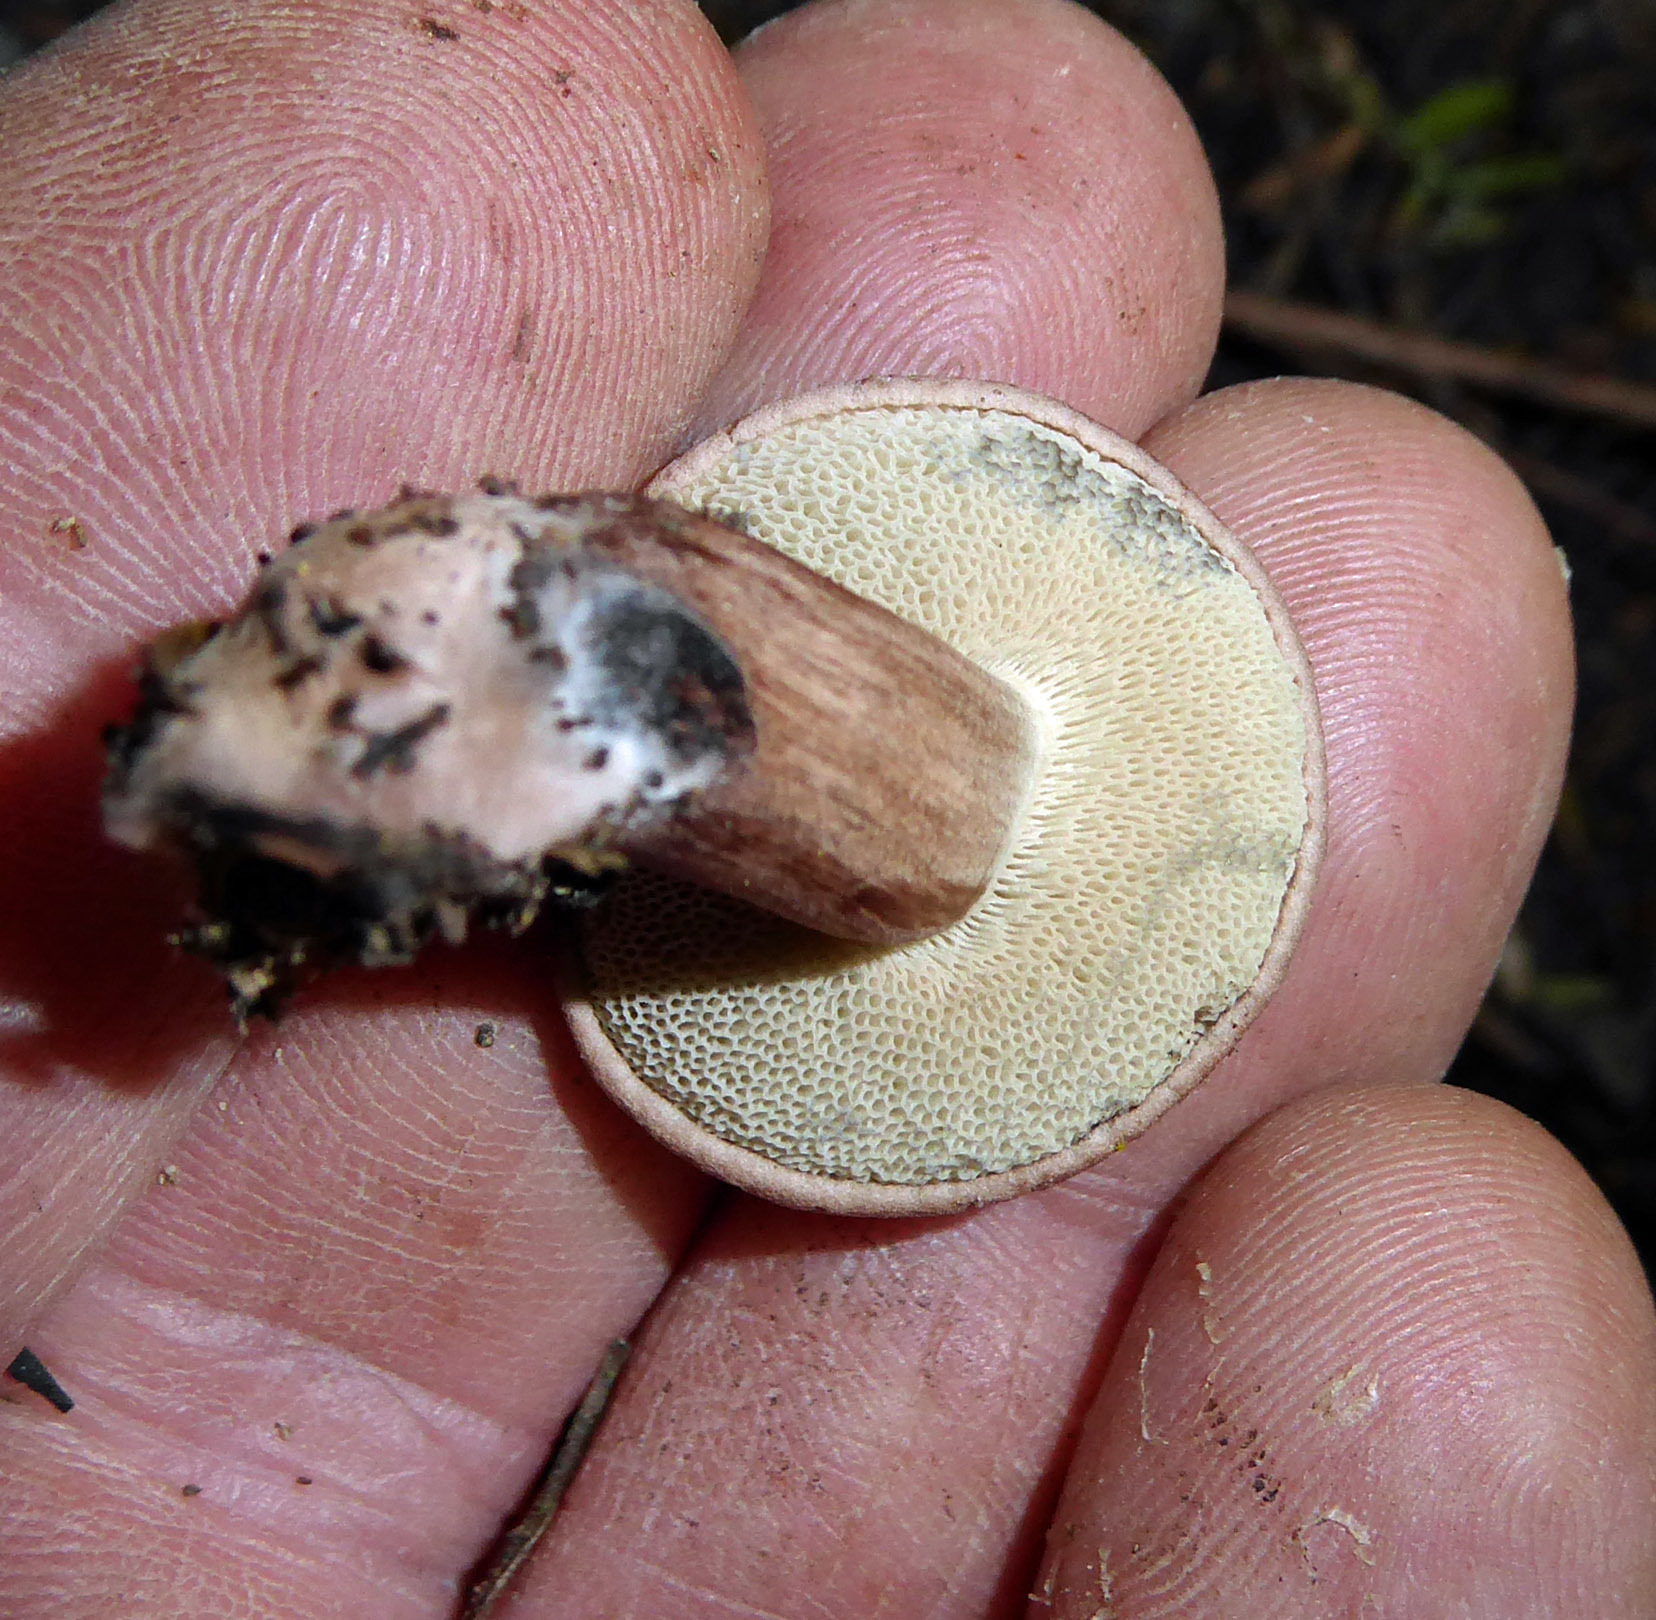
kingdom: Fungi
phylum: Basidiomycota
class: Agaricomycetes
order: Boletales
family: Boletaceae
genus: Porphyrellus
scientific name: Porphyrellus brunneus
